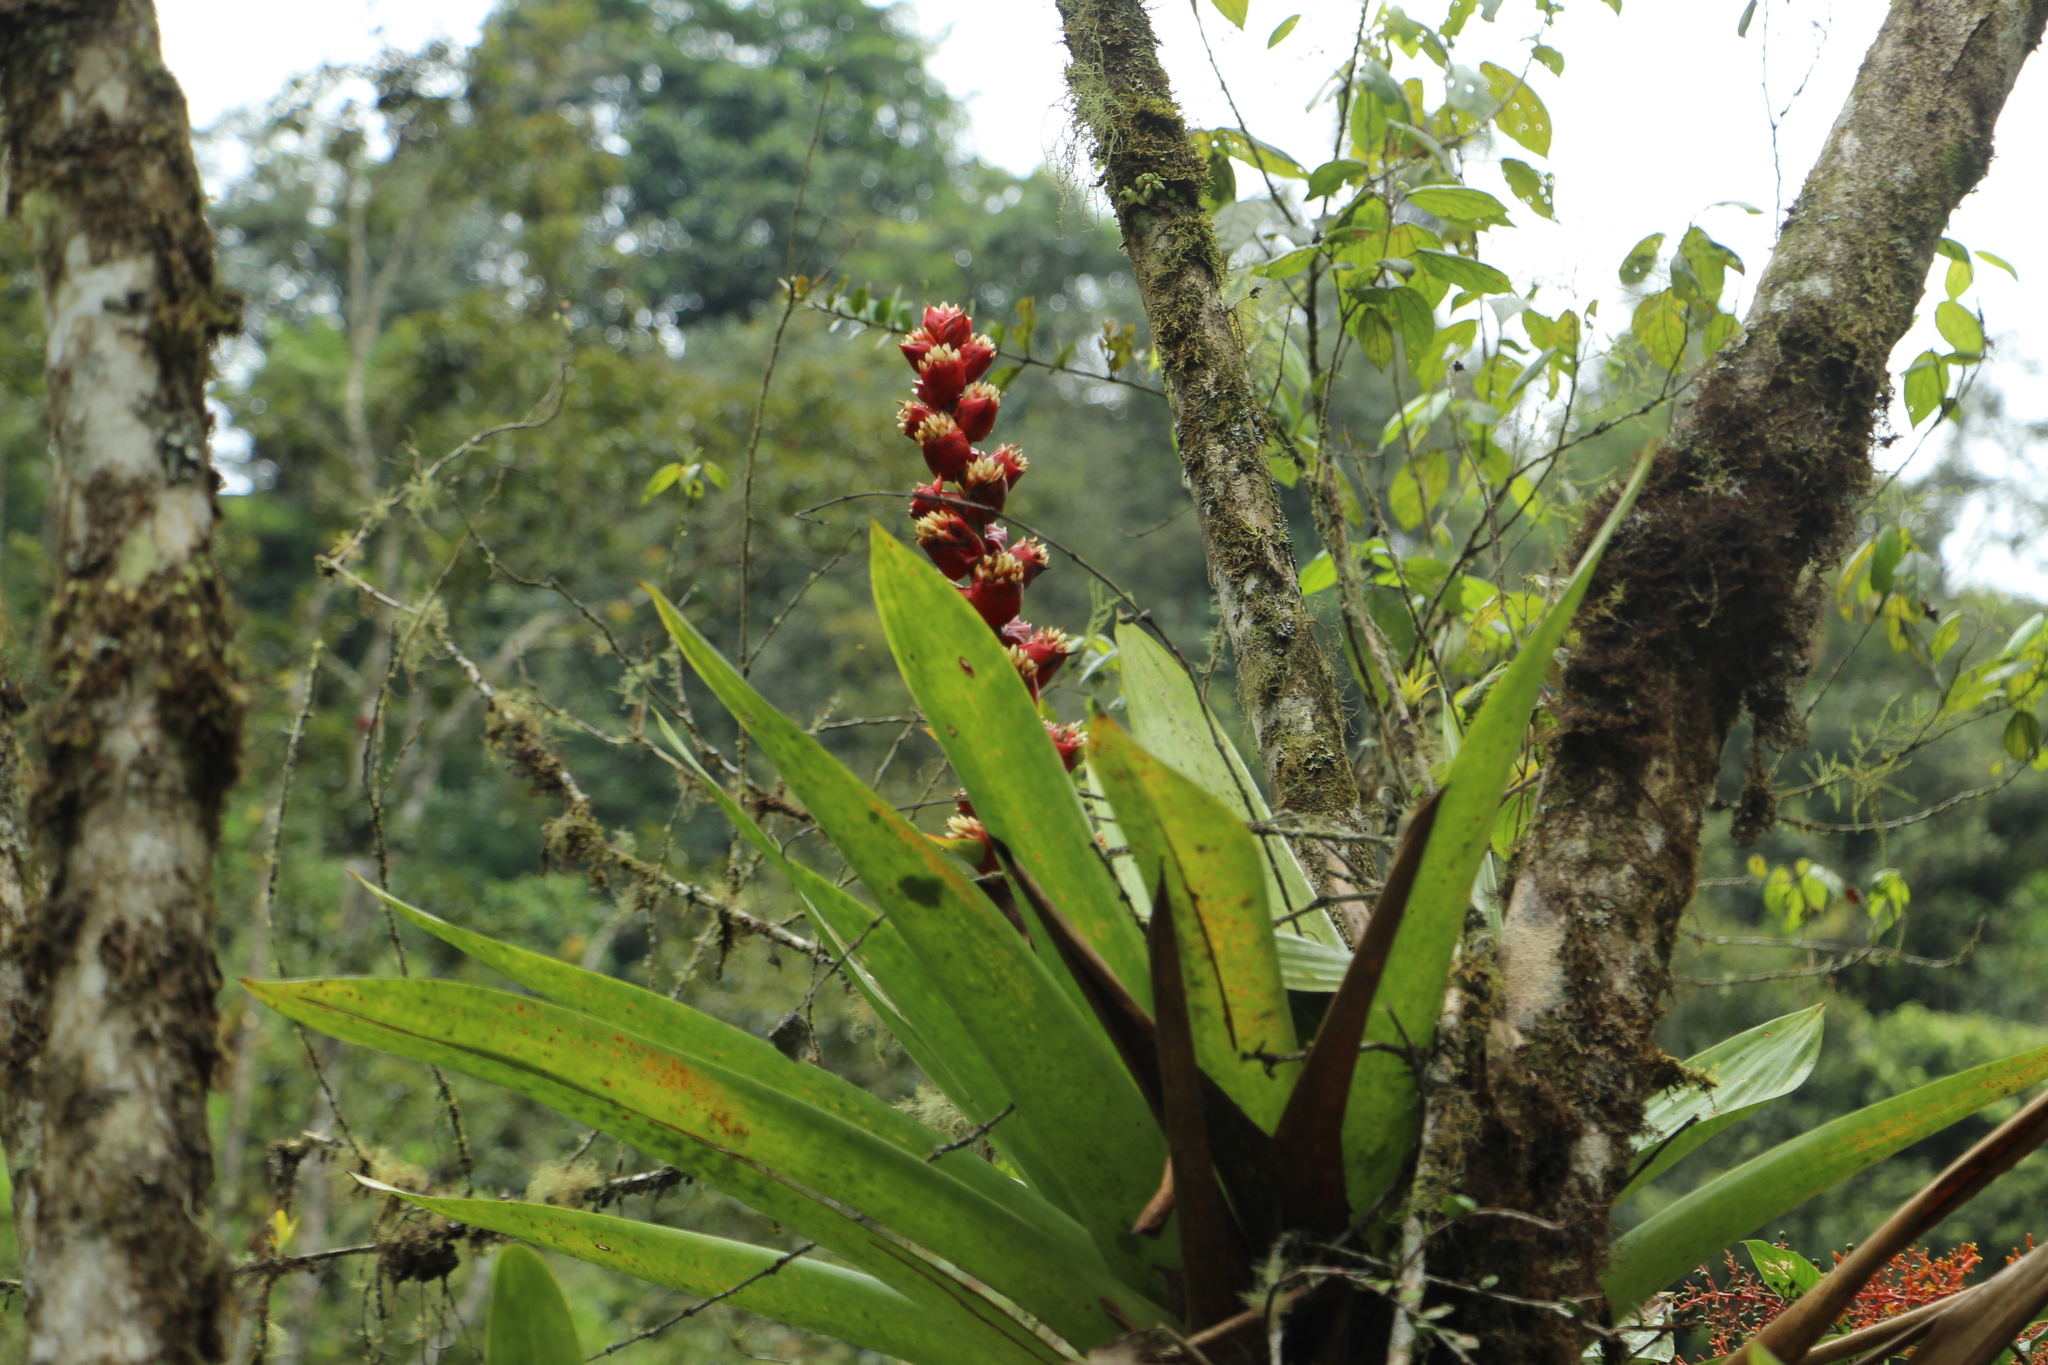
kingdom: Plantae
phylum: Tracheophyta
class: Liliopsida
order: Poales
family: Bromeliaceae
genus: Cipuropsis
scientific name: Cipuropsis capituligera
